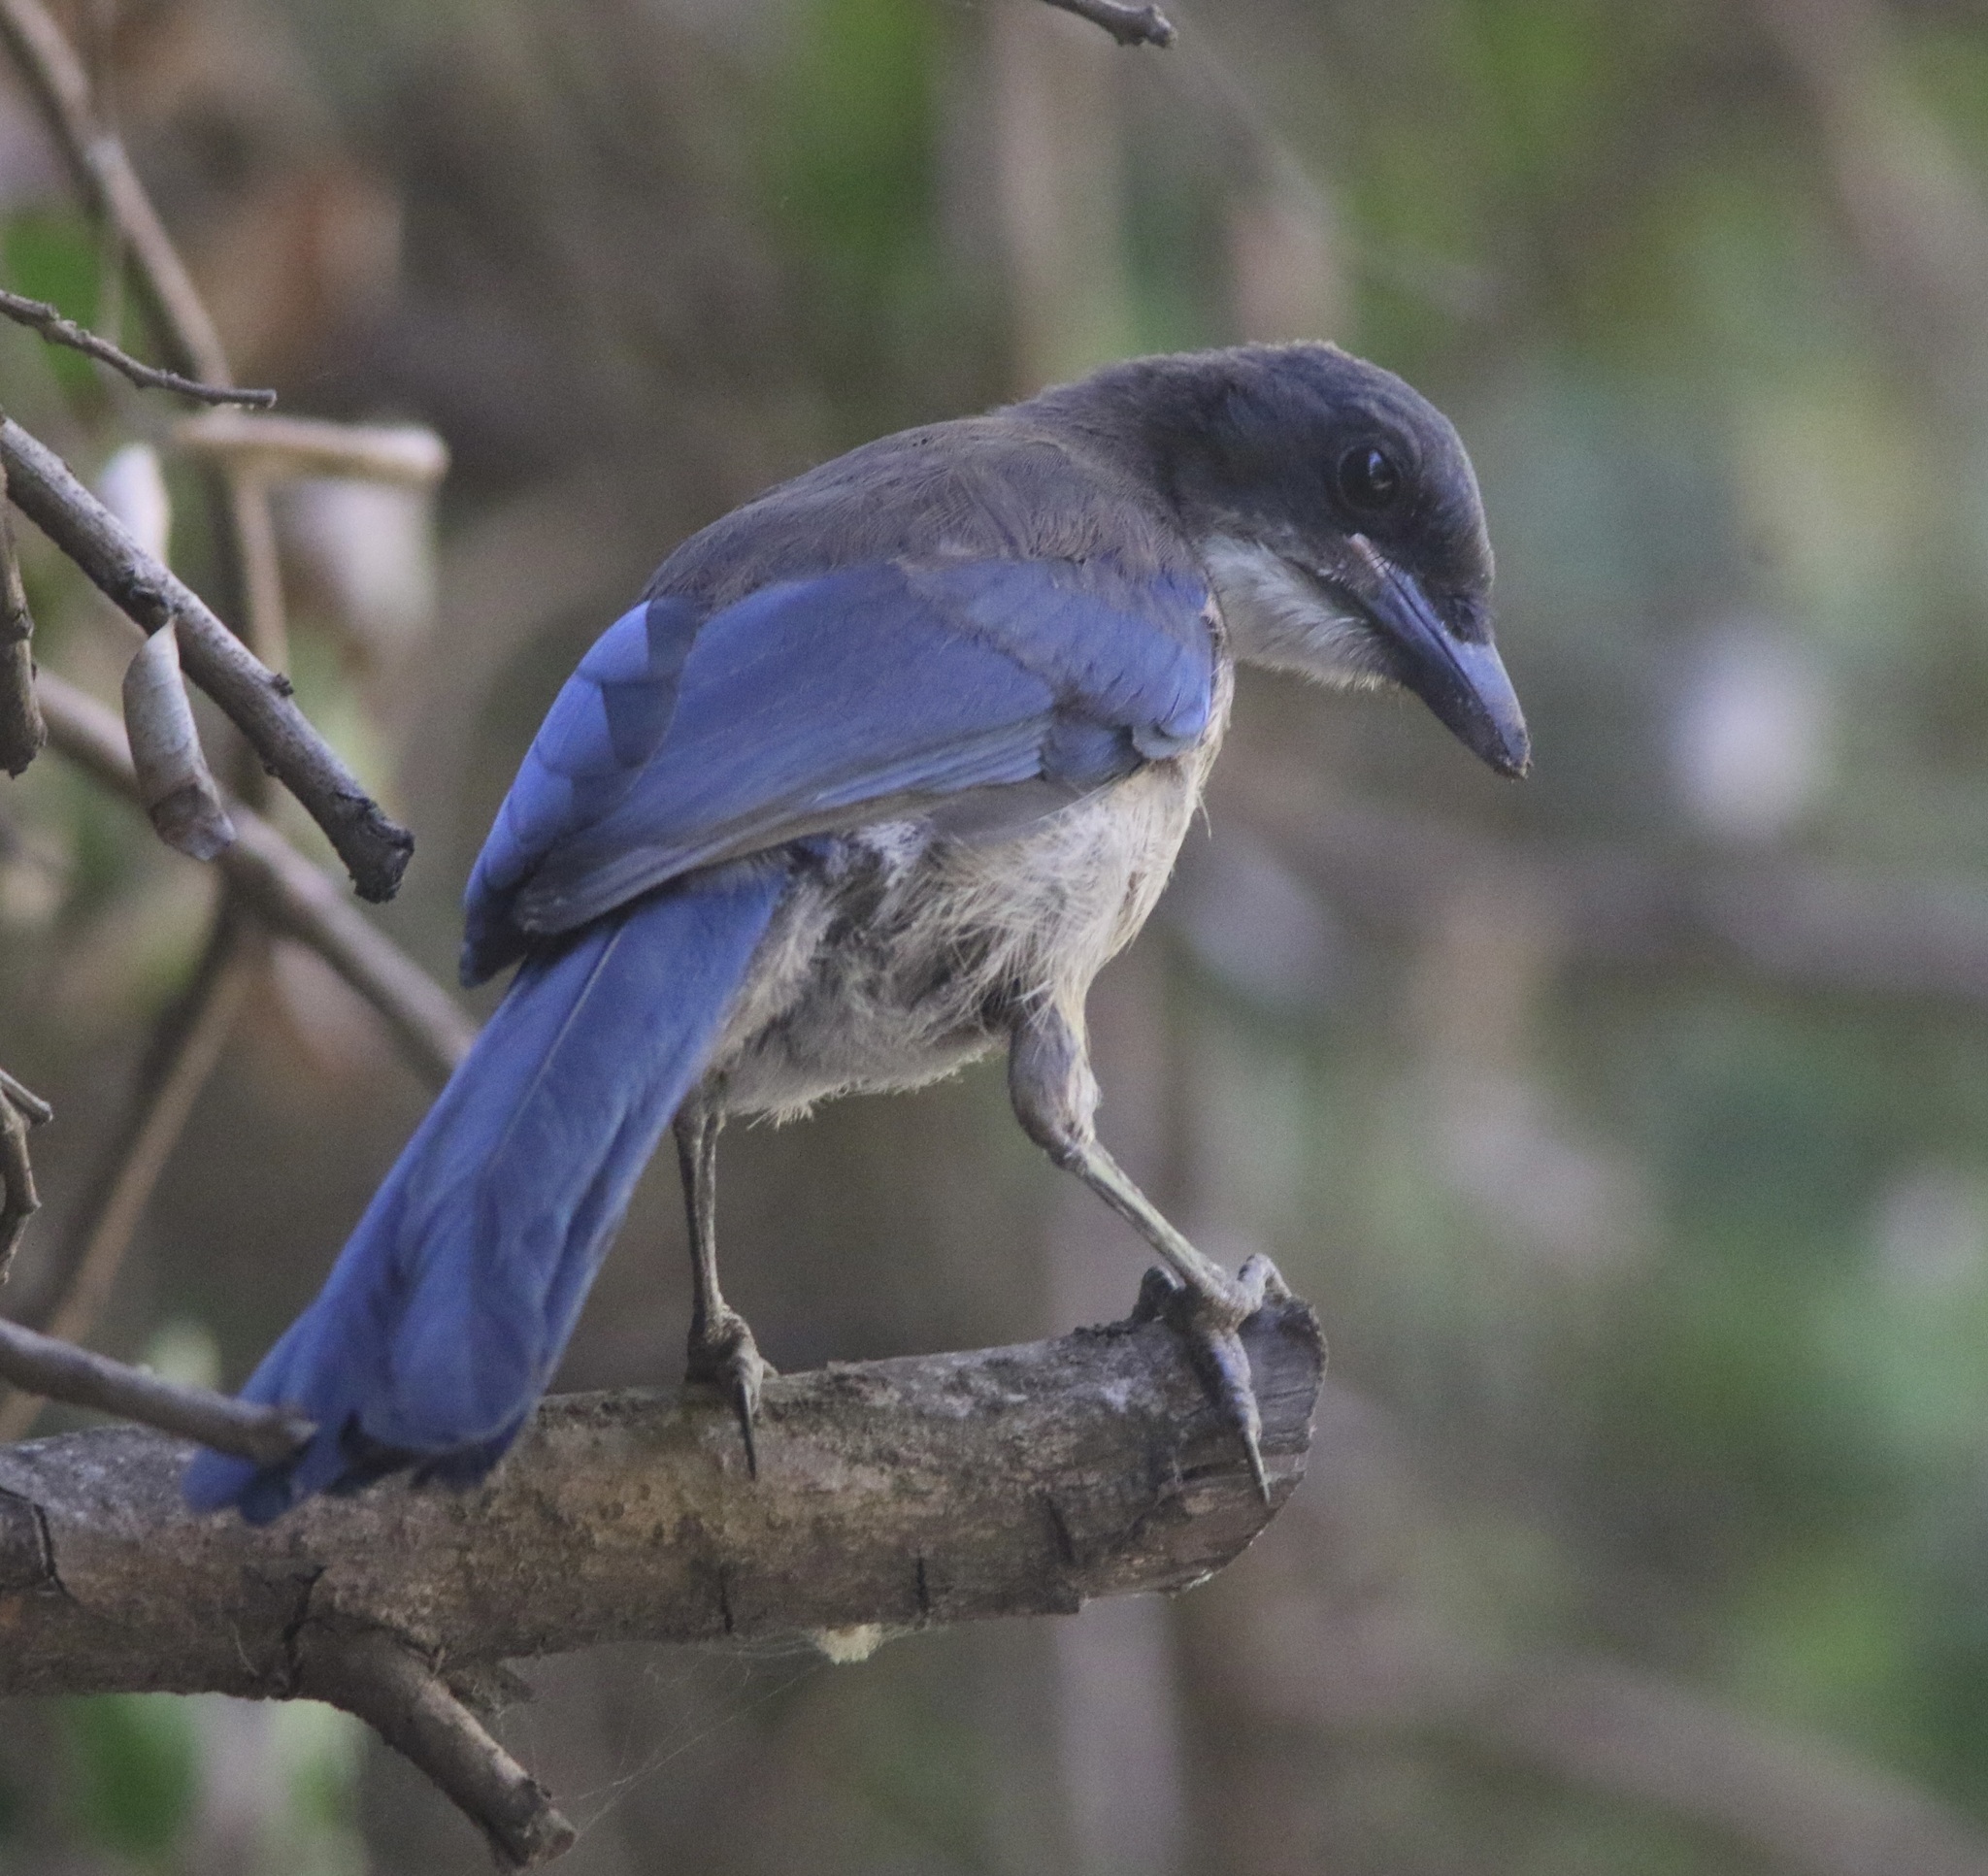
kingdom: Animalia
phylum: Chordata
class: Aves
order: Passeriformes
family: Corvidae
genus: Aphelocoma
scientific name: Aphelocoma insularis
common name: Island scrub-jay
